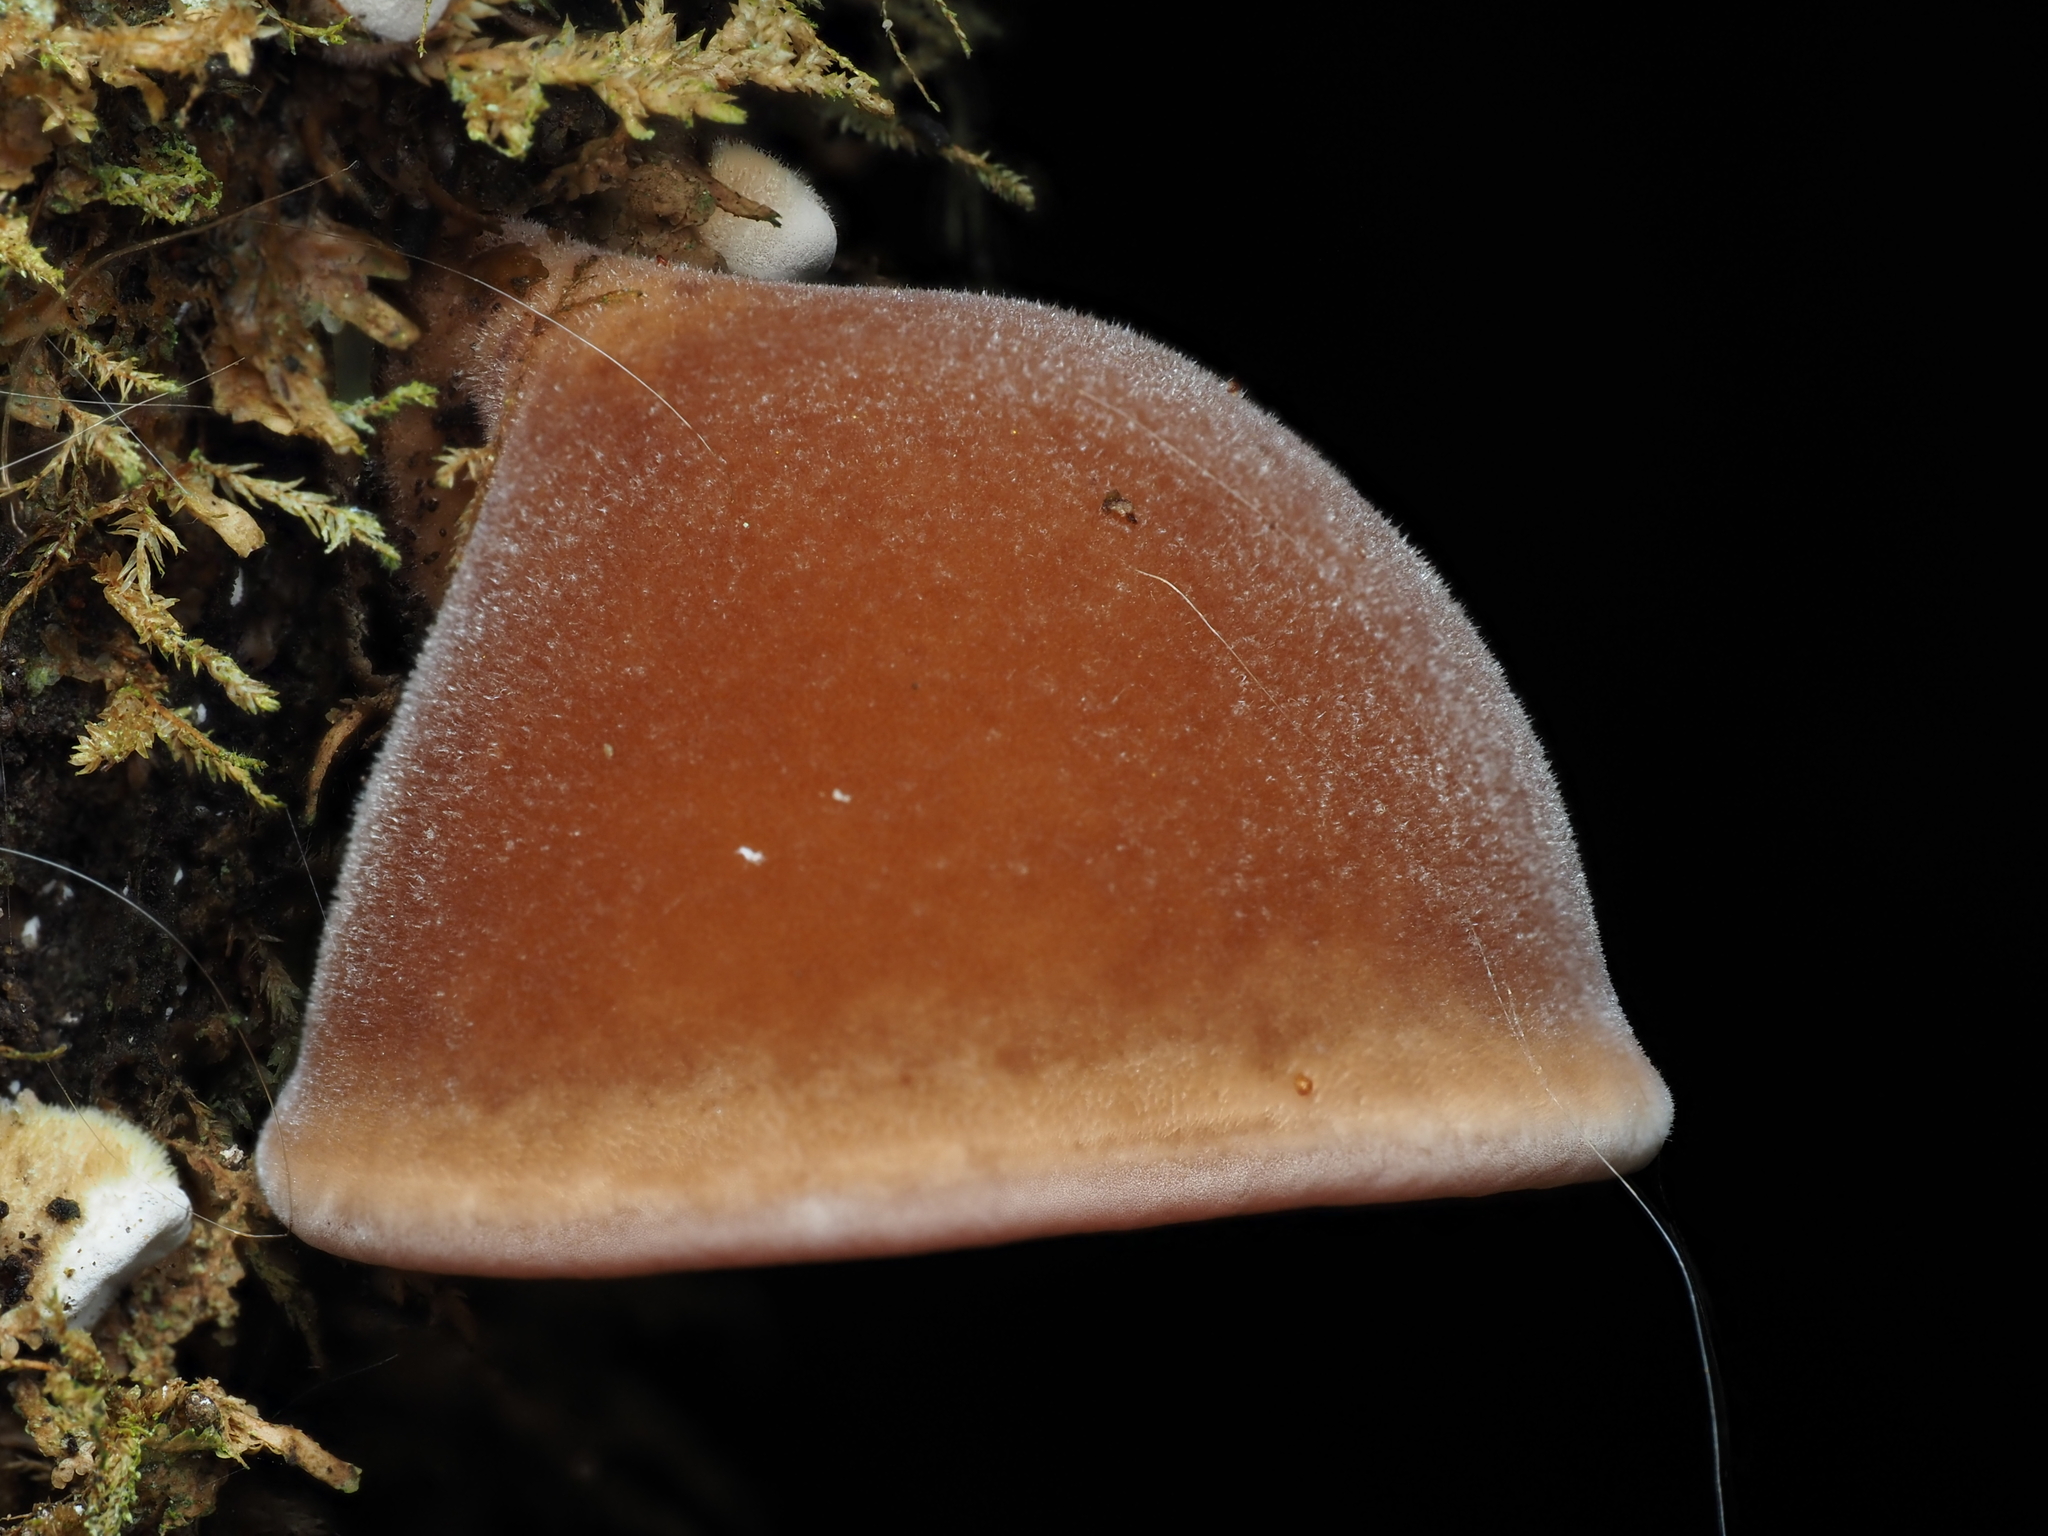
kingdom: Fungi
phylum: Basidiomycota
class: Agaricomycetes
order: Auriculariales
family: Auriculariaceae
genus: Auricularia
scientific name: Auricularia cornea
